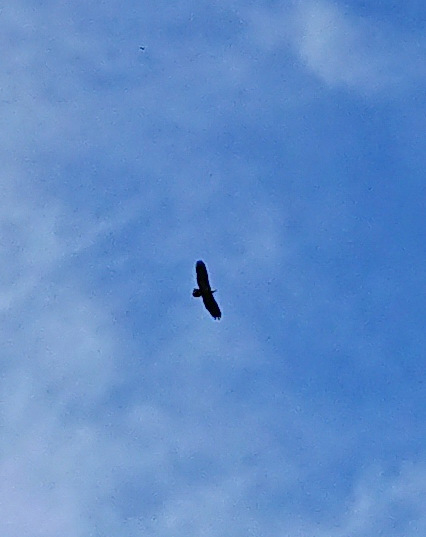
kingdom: Animalia
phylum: Chordata
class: Aves
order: Accipitriformes
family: Accipitridae
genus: Haliaeetus
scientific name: Haliaeetus leucocephalus
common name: Bald eagle
